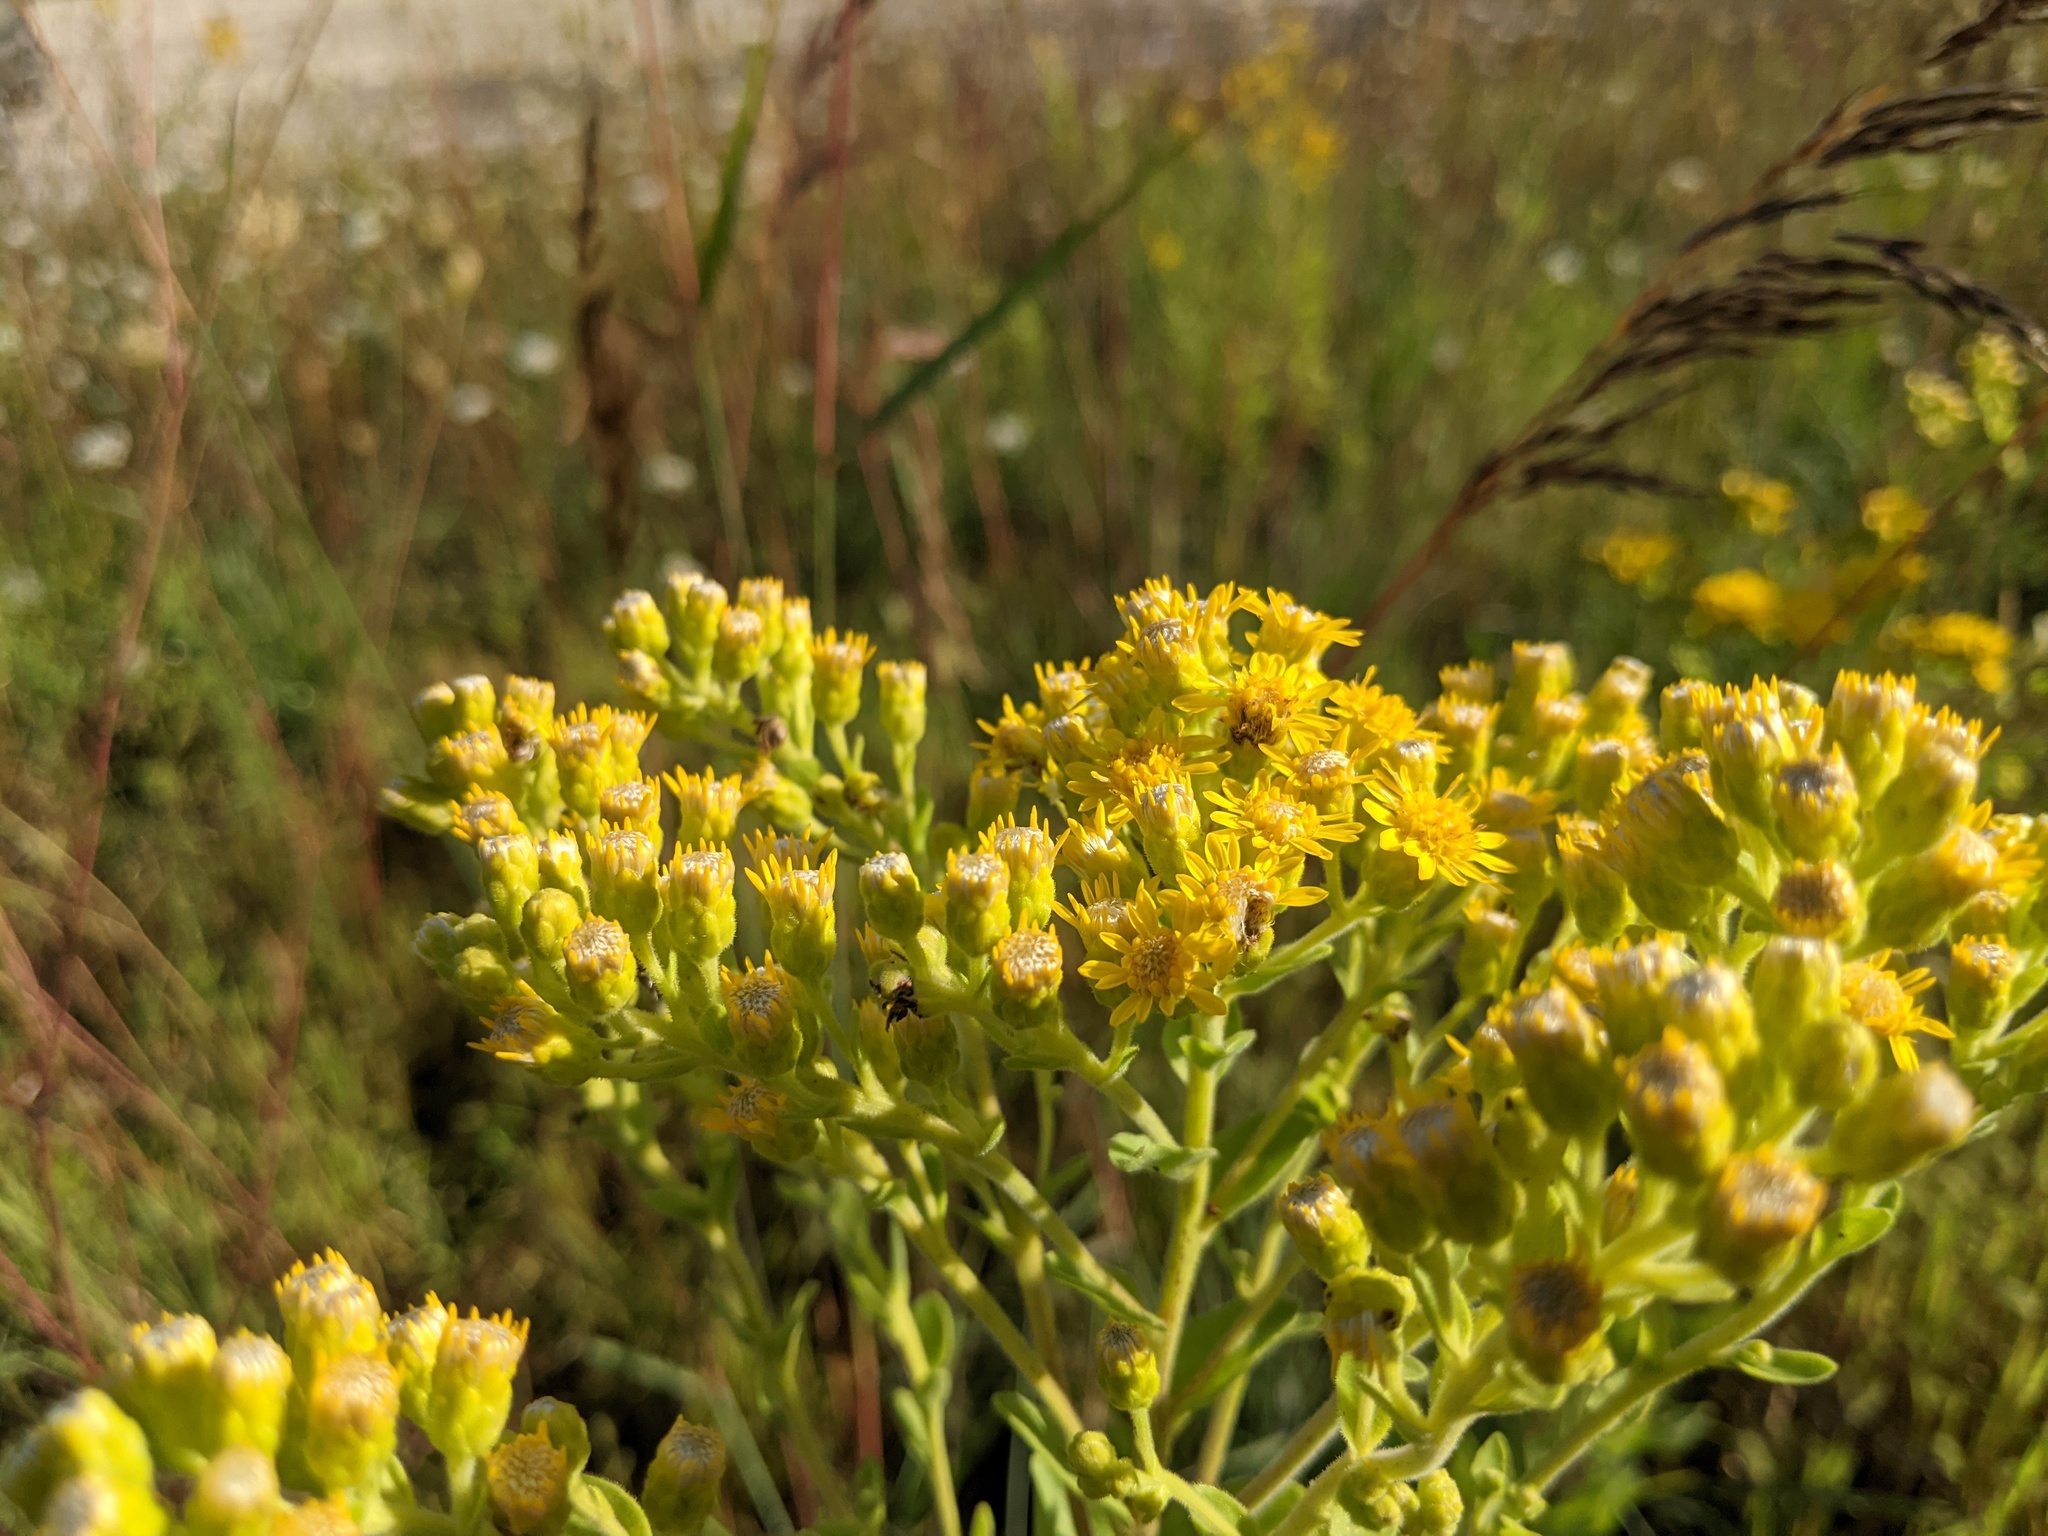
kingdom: Plantae
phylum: Tracheophyta
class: Magnoliopsida
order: Asterales
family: Asteraceae
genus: Solidago
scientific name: Solidago rigida
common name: Rigid goldenrod
